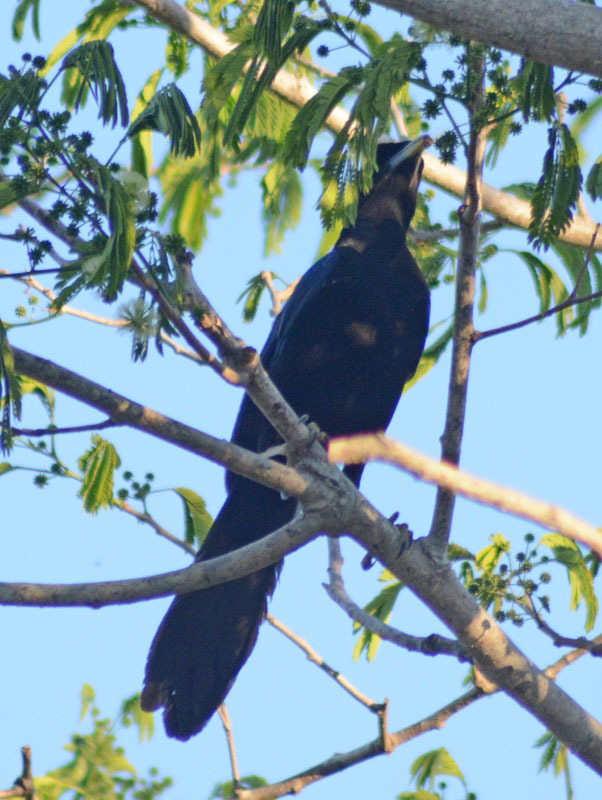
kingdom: Animalia
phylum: Chordata
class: Aves
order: Passeriformes
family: Corvidae
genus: Cyanocorax
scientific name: Cyanocorax beecheii
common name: Purplish-backed jay
